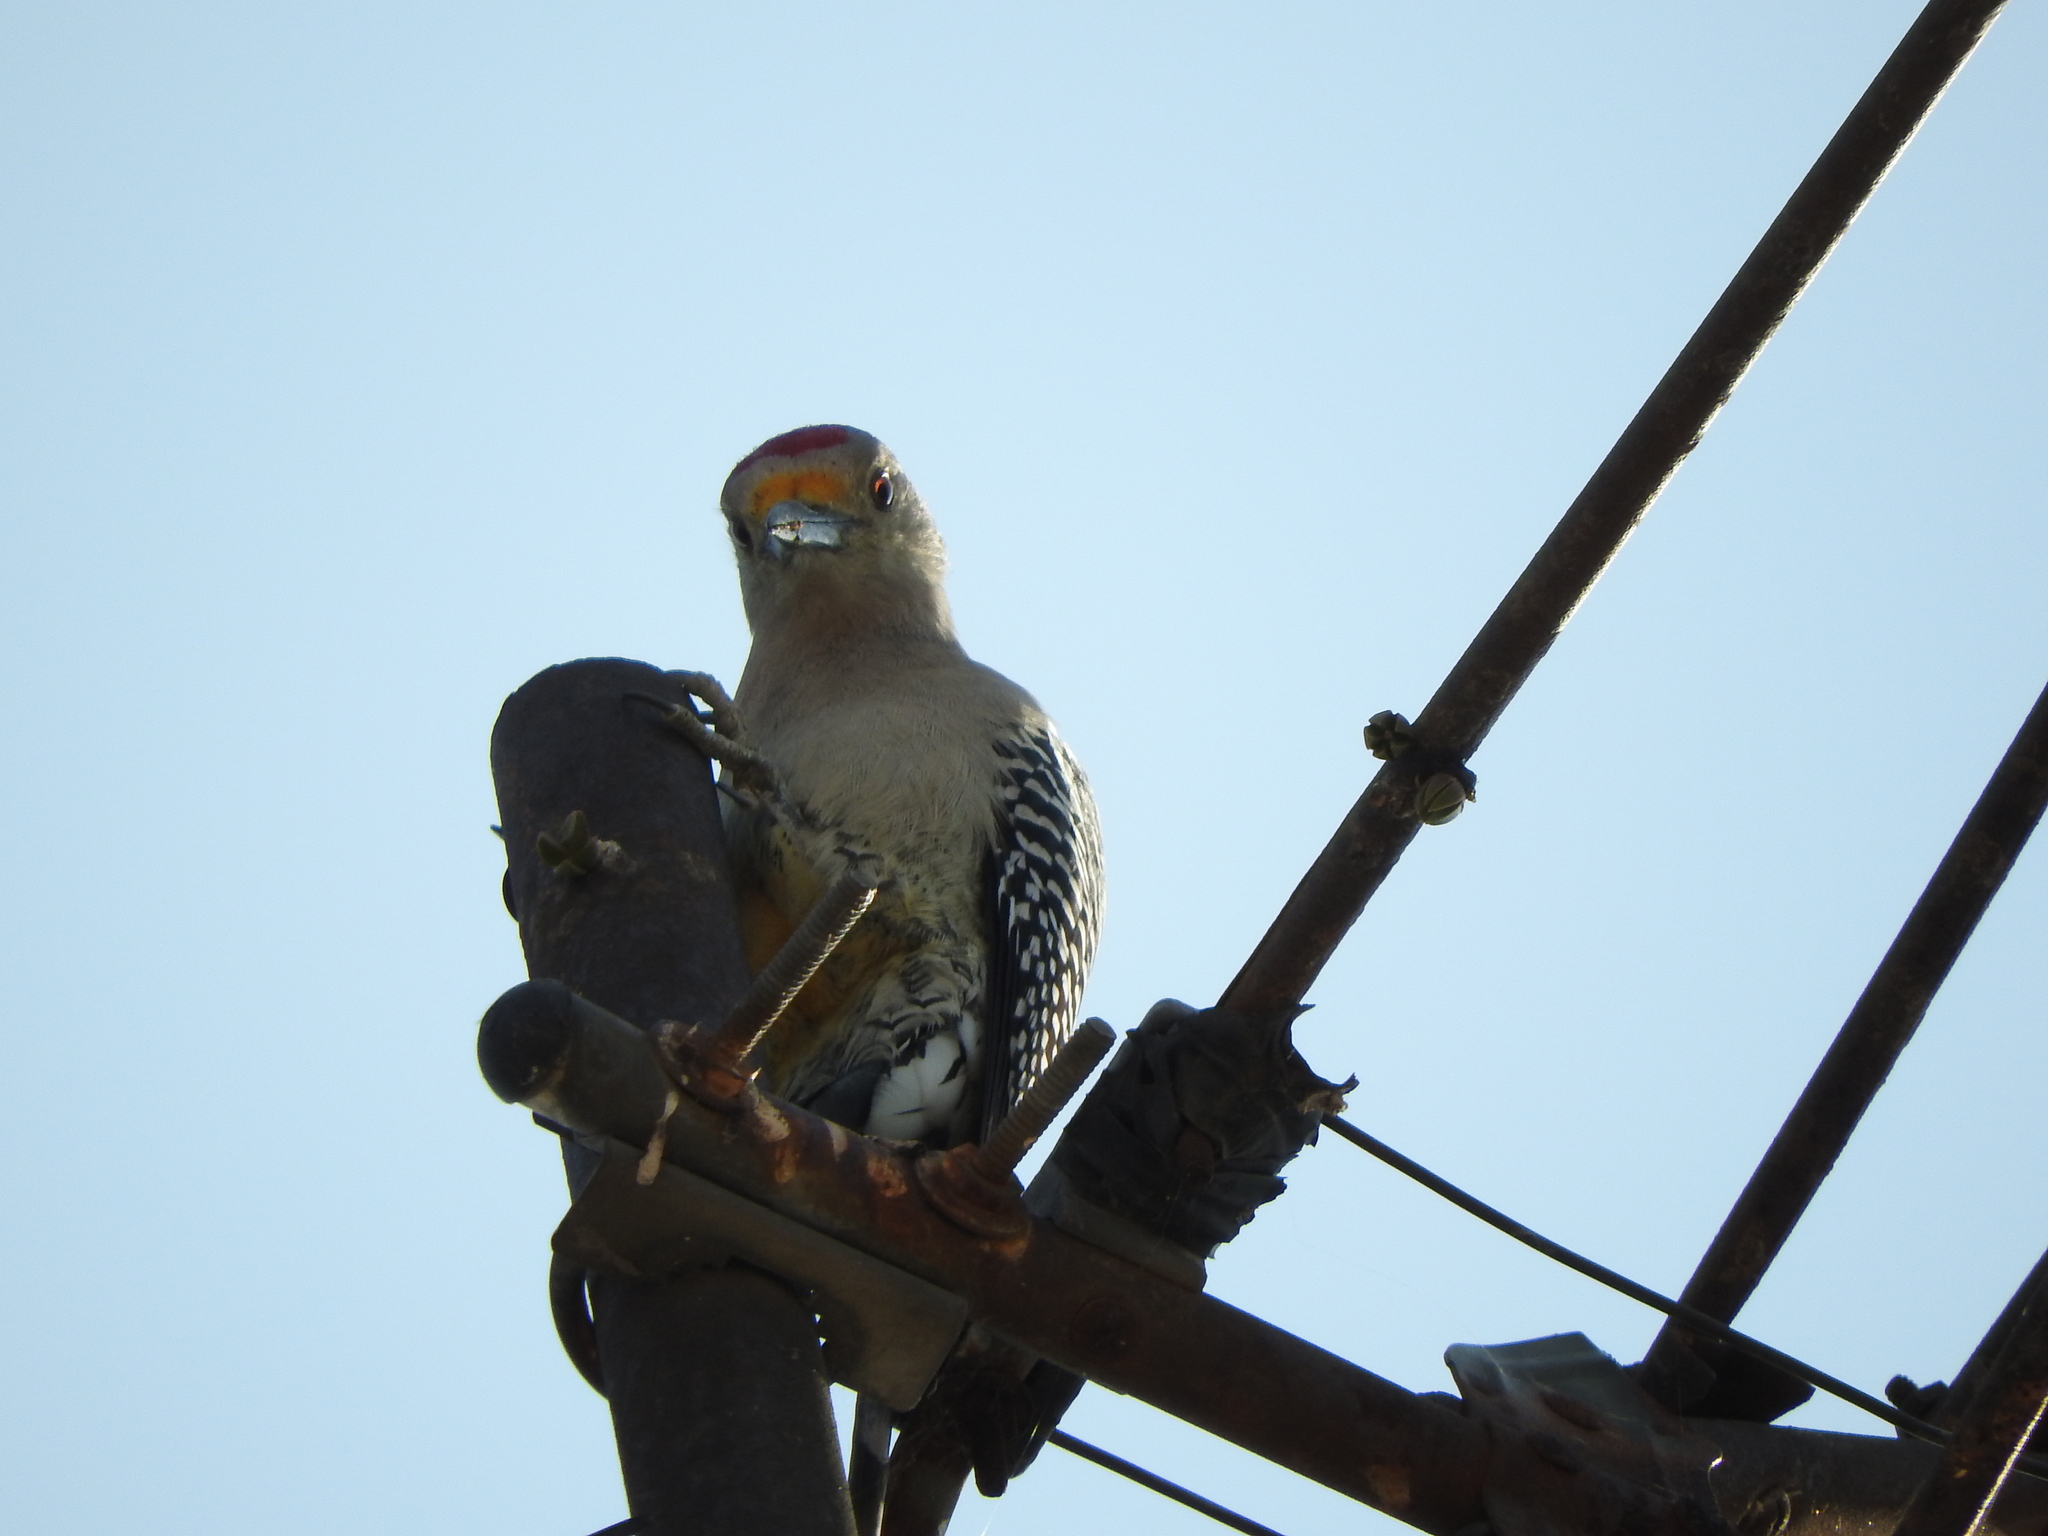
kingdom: Animalia
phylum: Chordata
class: Aves
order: Piciformes
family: Picidae
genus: Melanerpes
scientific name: Melanerpes aurifrons
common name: Golden-fronted woodpecker
